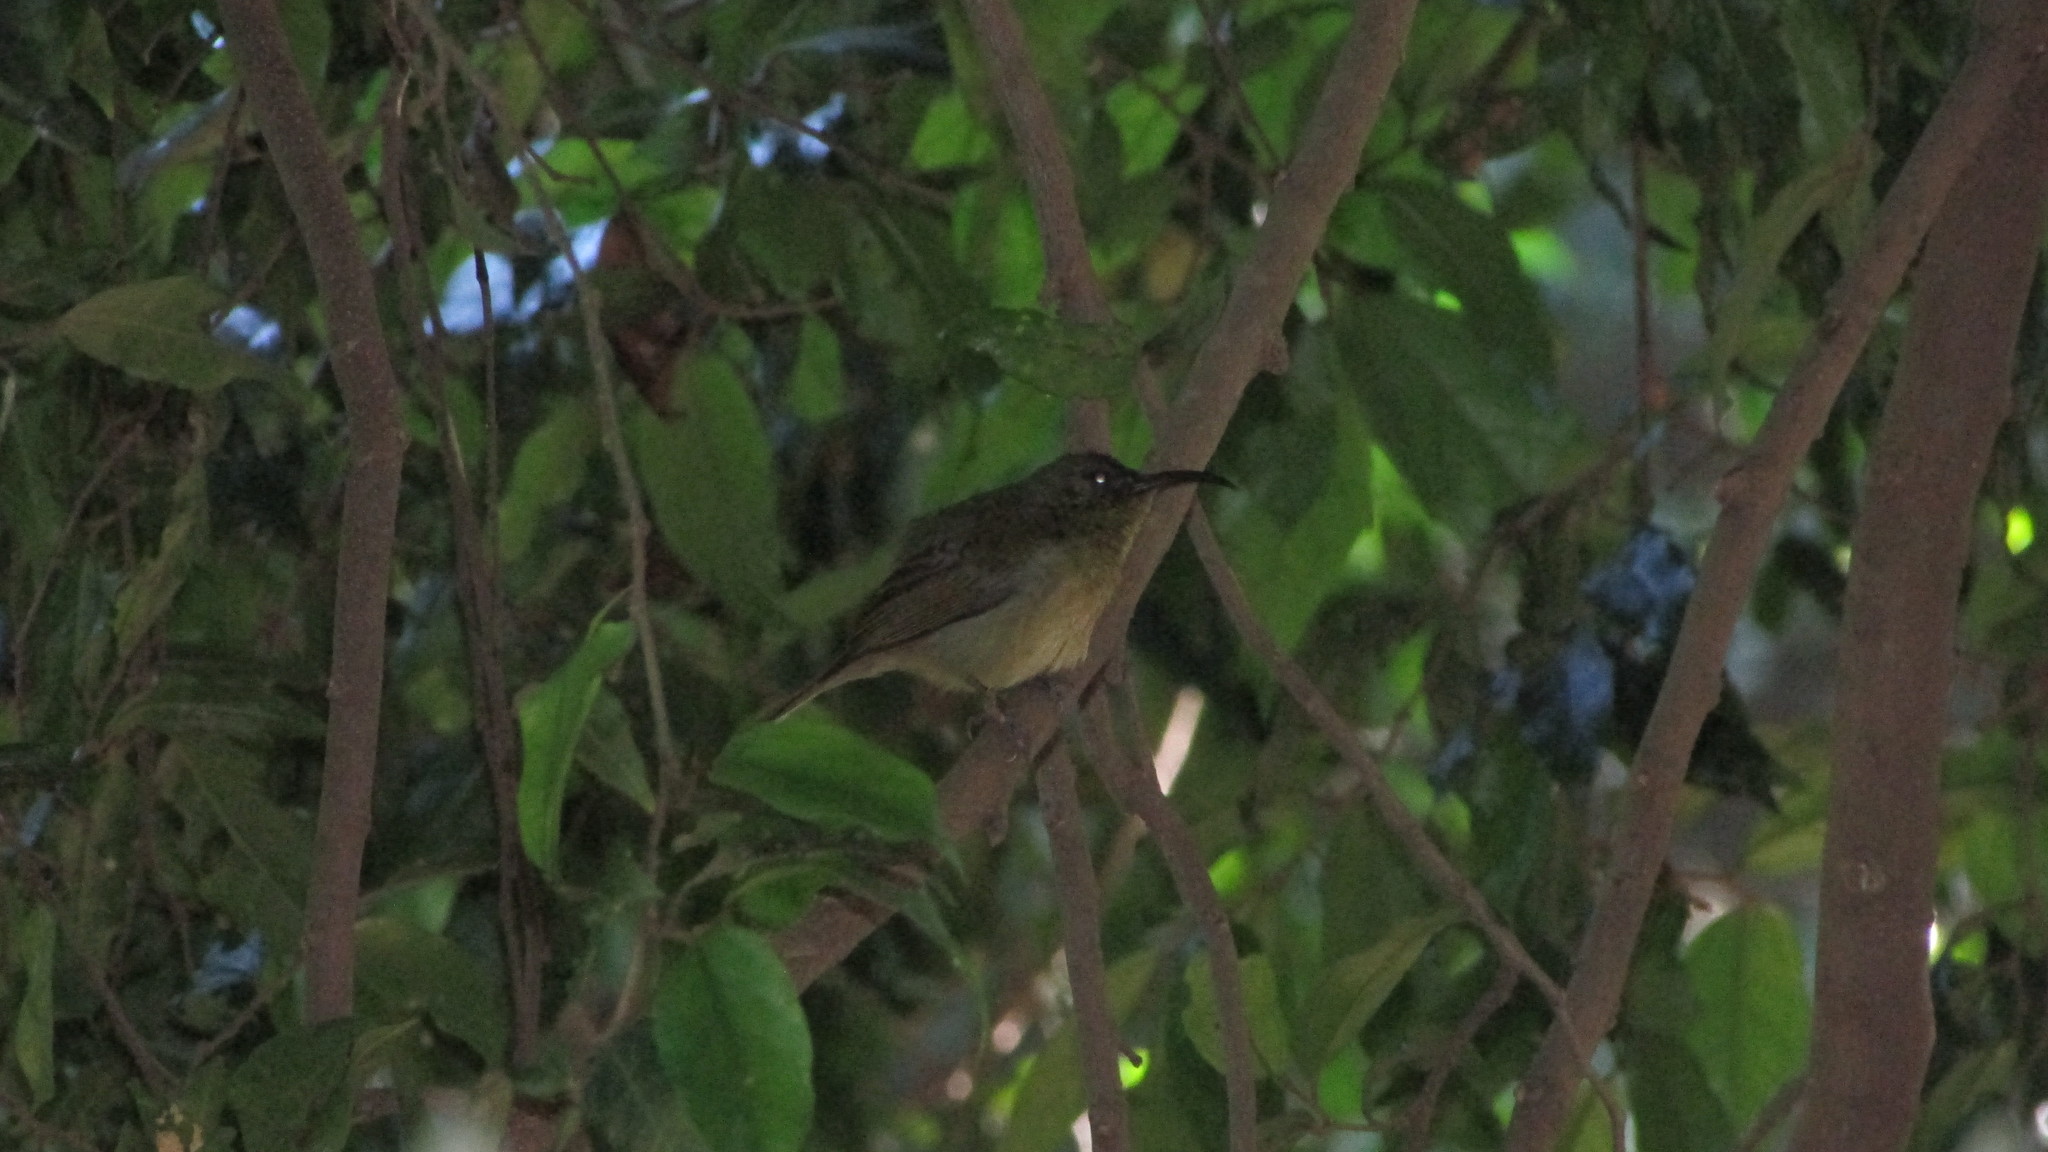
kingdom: Animalia
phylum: Chordata
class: Aves
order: Passeriformes
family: Nectariniidae
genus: Cyanomitra
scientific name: Cyanomitra olivacea
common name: Olive sunbird
